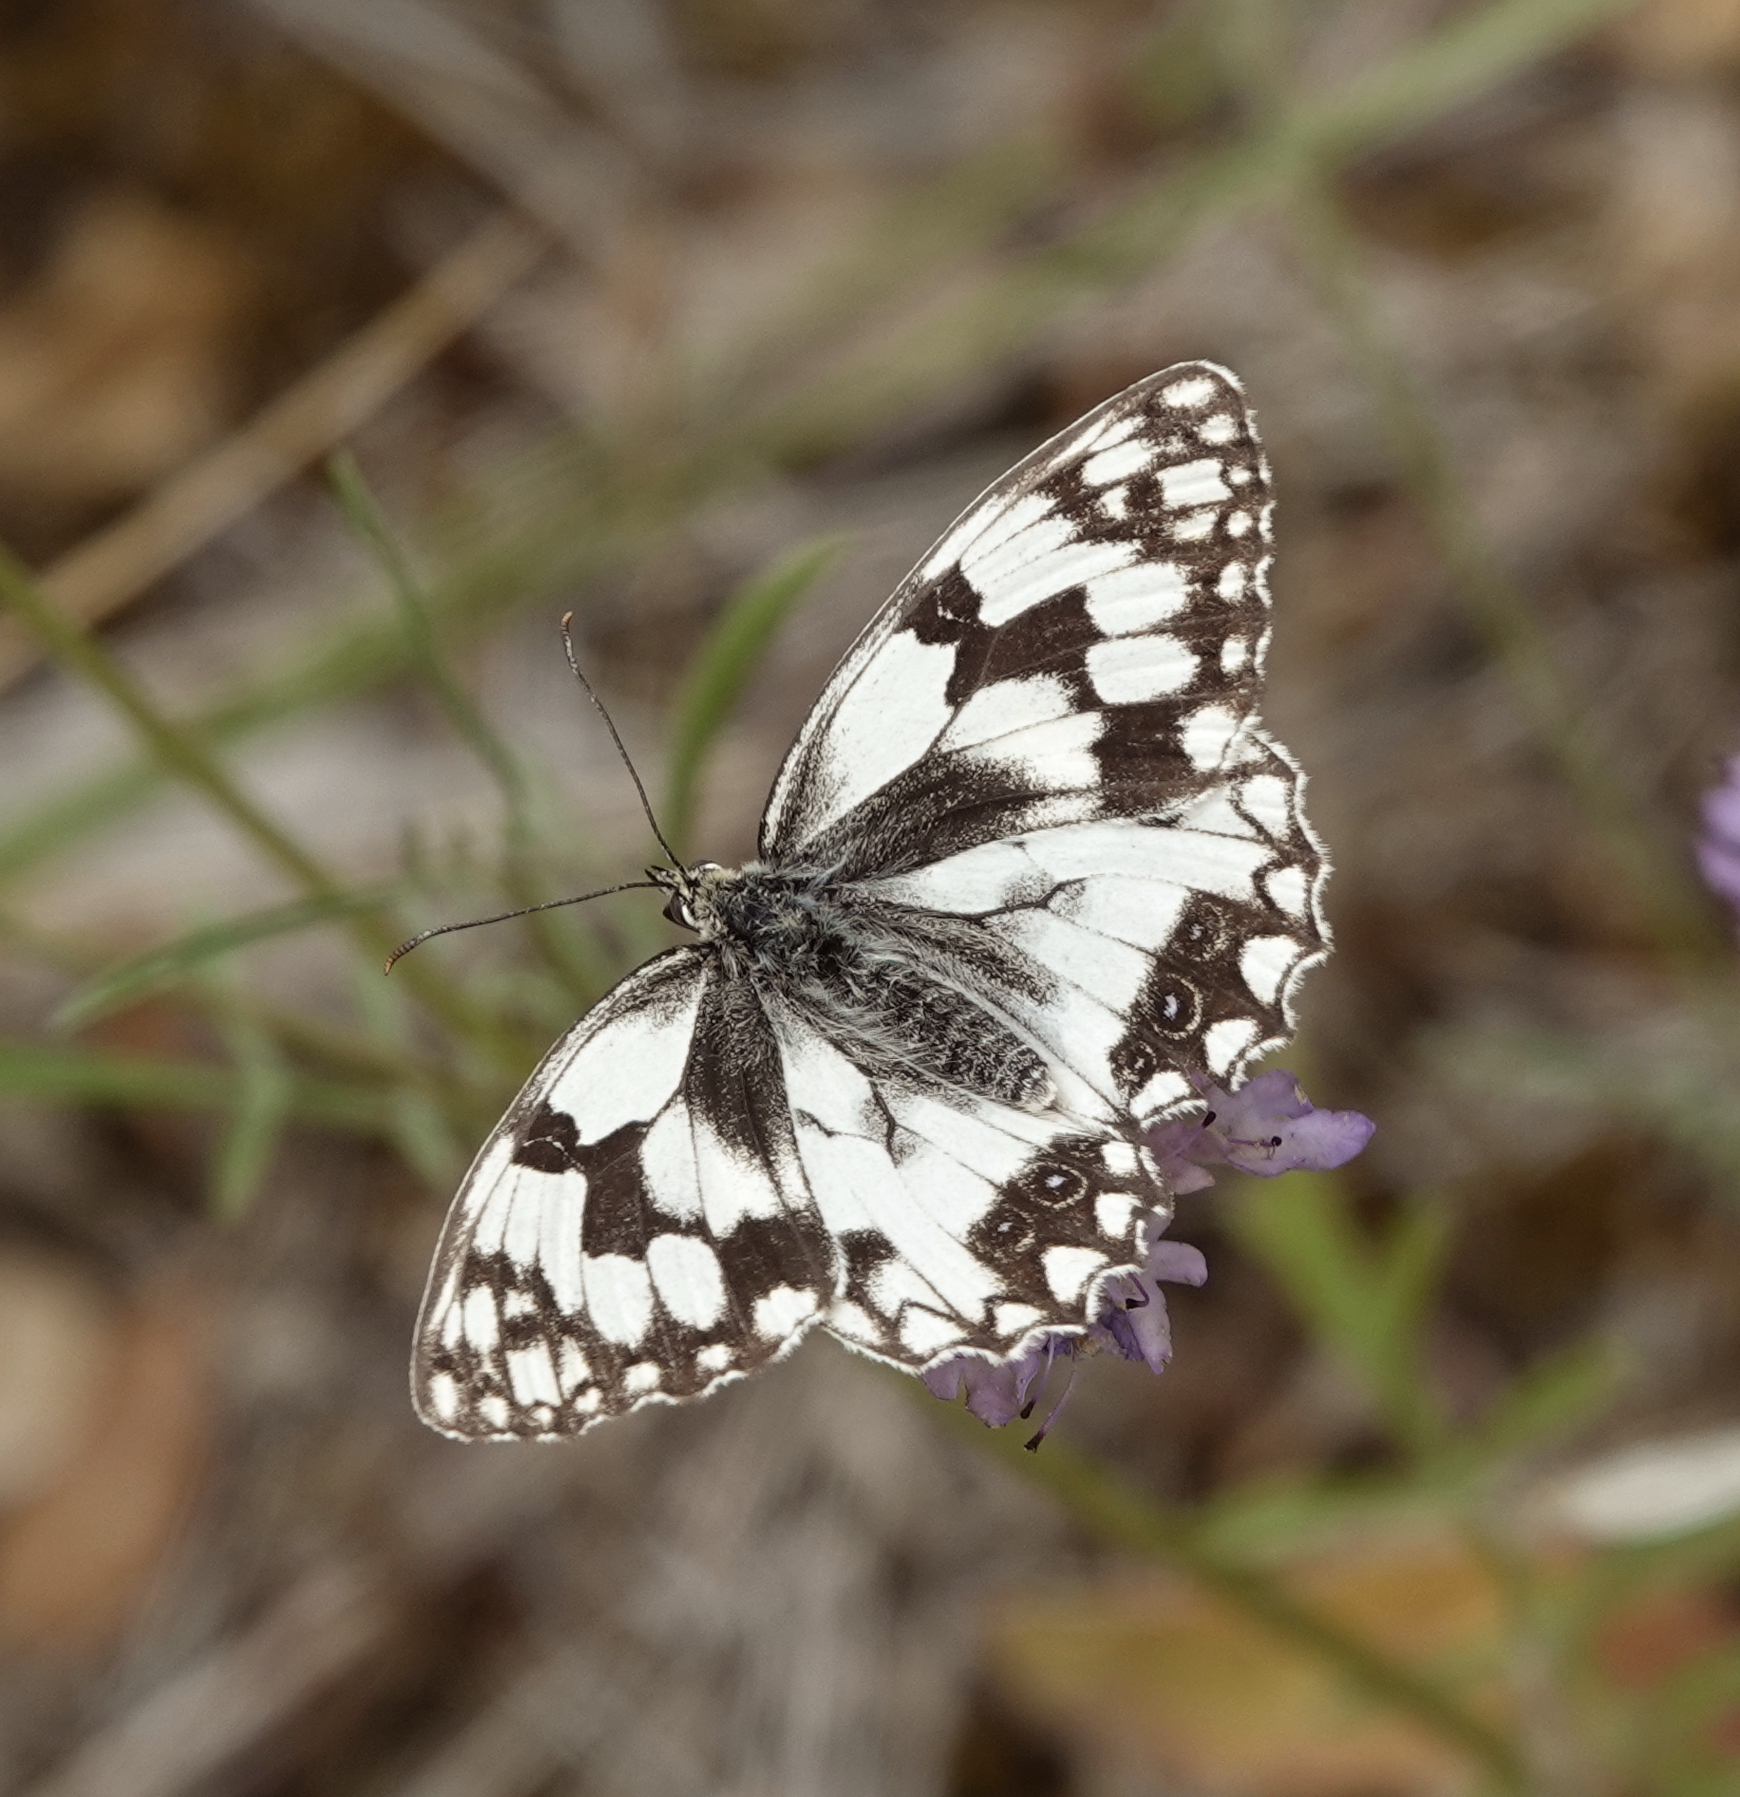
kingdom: Animalia
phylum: Arthropoda
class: Insecta
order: Lepidoptera
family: Nymphalidae
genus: Melanargia
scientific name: Melanargia lachesis
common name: Iberian marbled white
